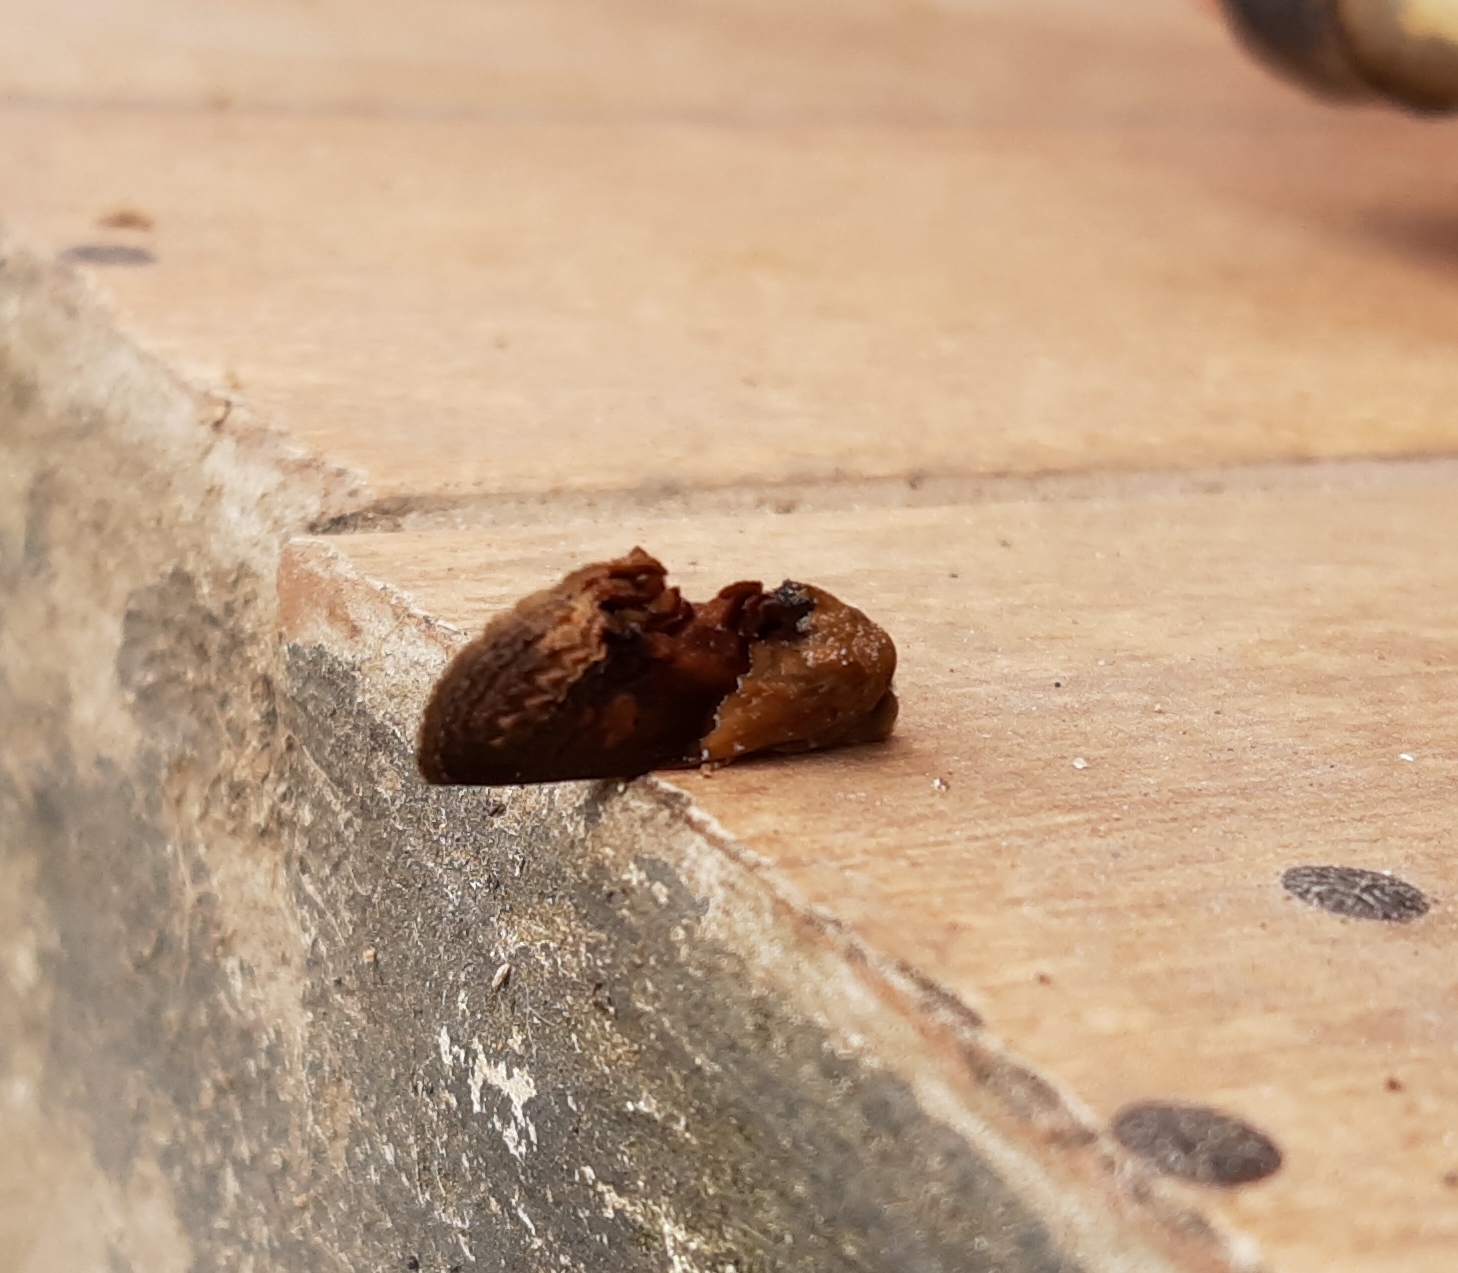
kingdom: Animalia
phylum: Arthropoda
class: Insecta
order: Lepidoptera
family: Erebidae
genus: Gonodonta
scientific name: Gonodonta bidens
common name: Cutworm moth
